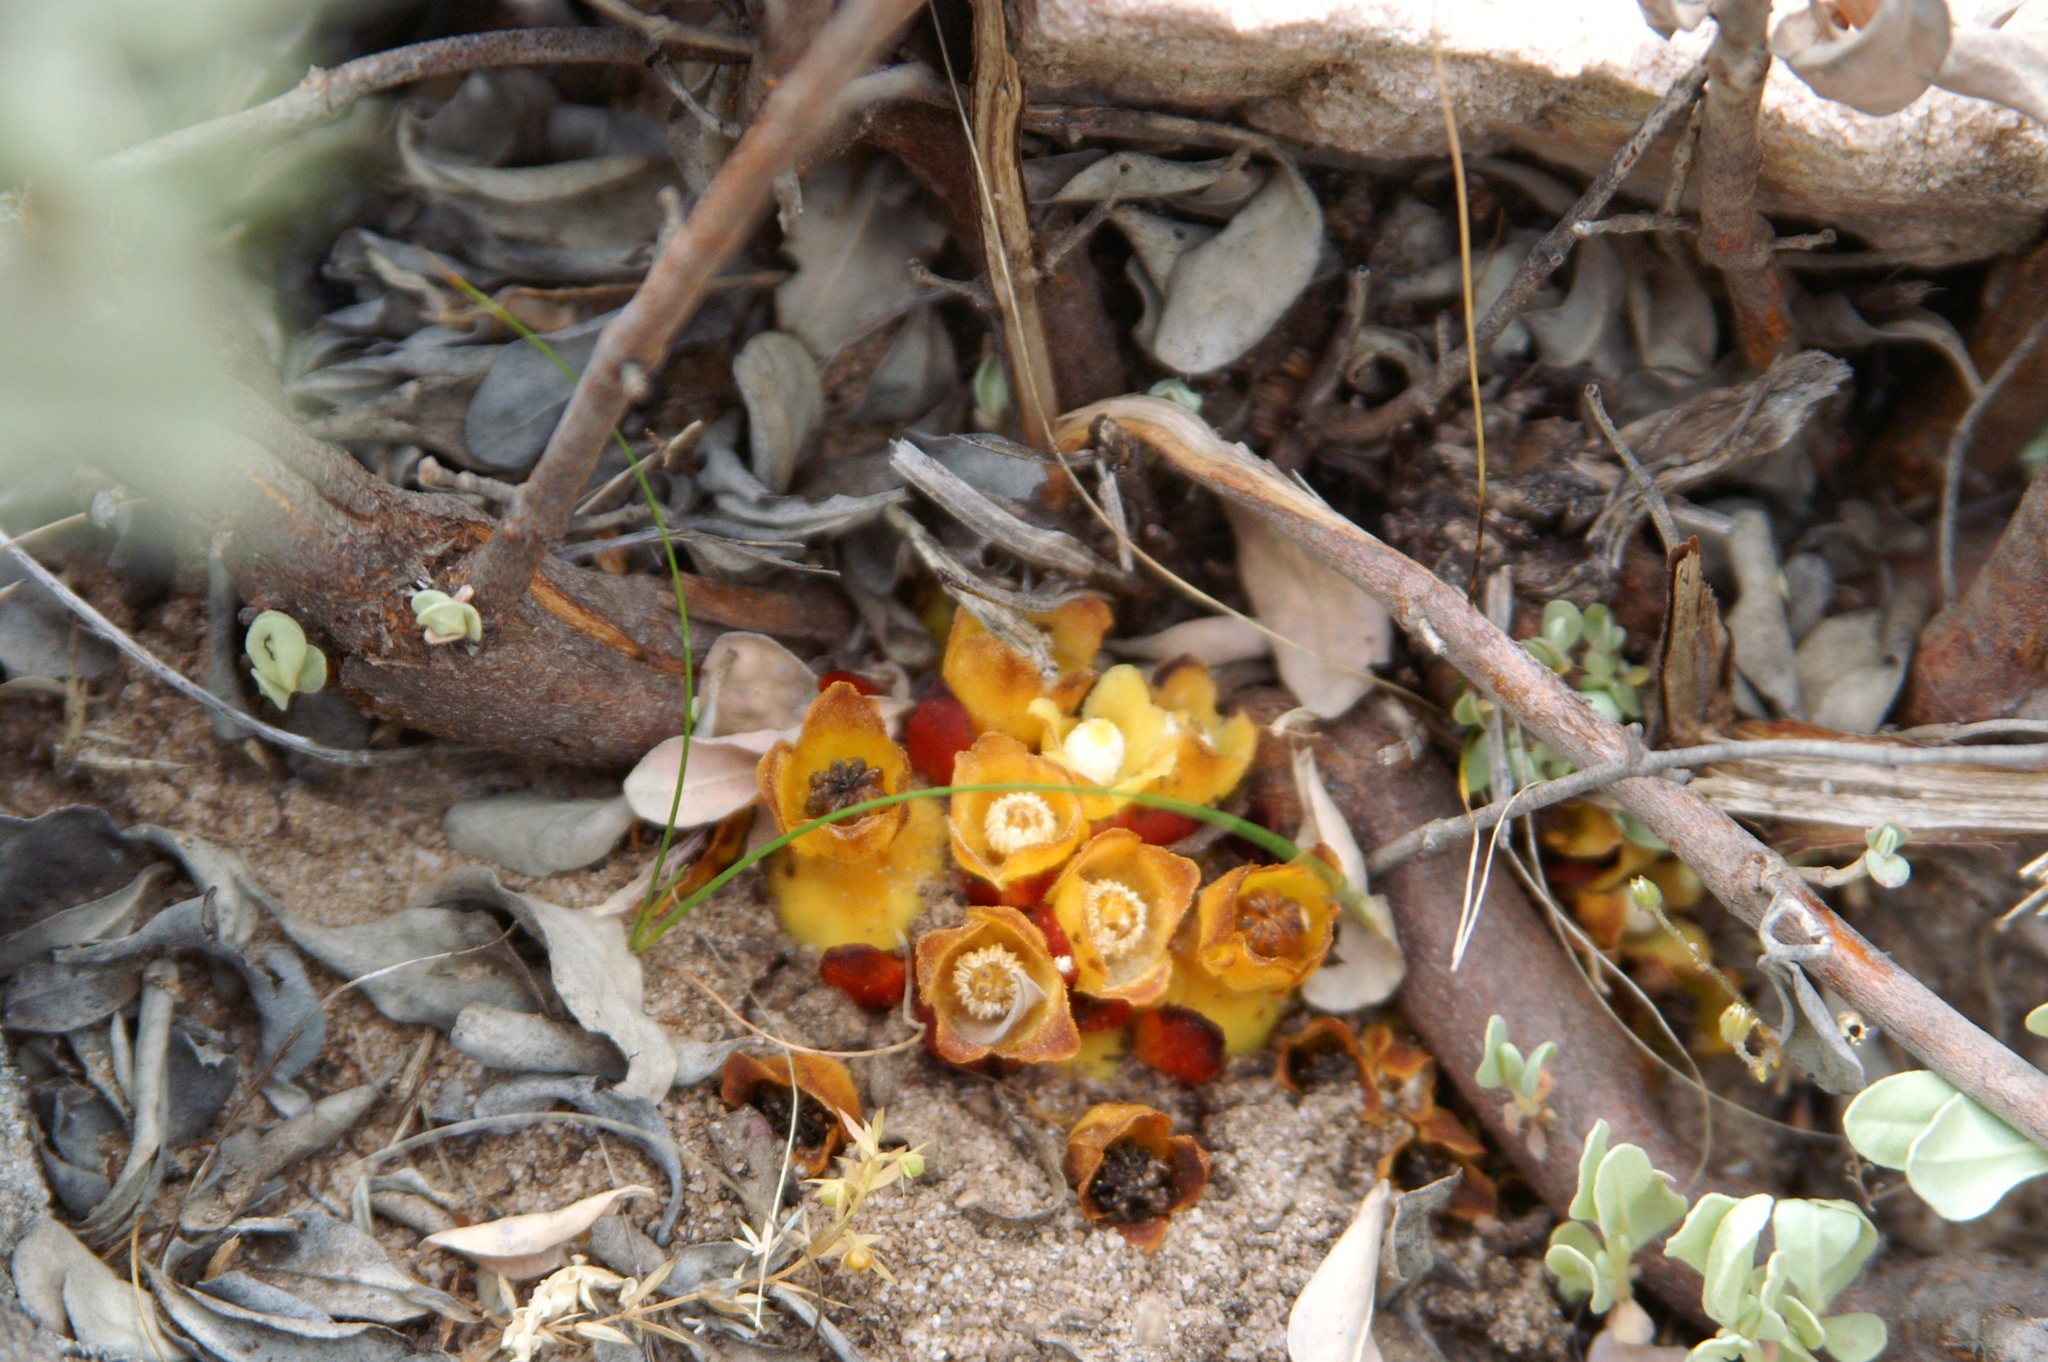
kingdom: Plantae
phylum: Tracheophyta
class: Magnoliopsida
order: Malvales
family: Cytinaceae
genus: Cytinus
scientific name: Cytinus hypocistis
